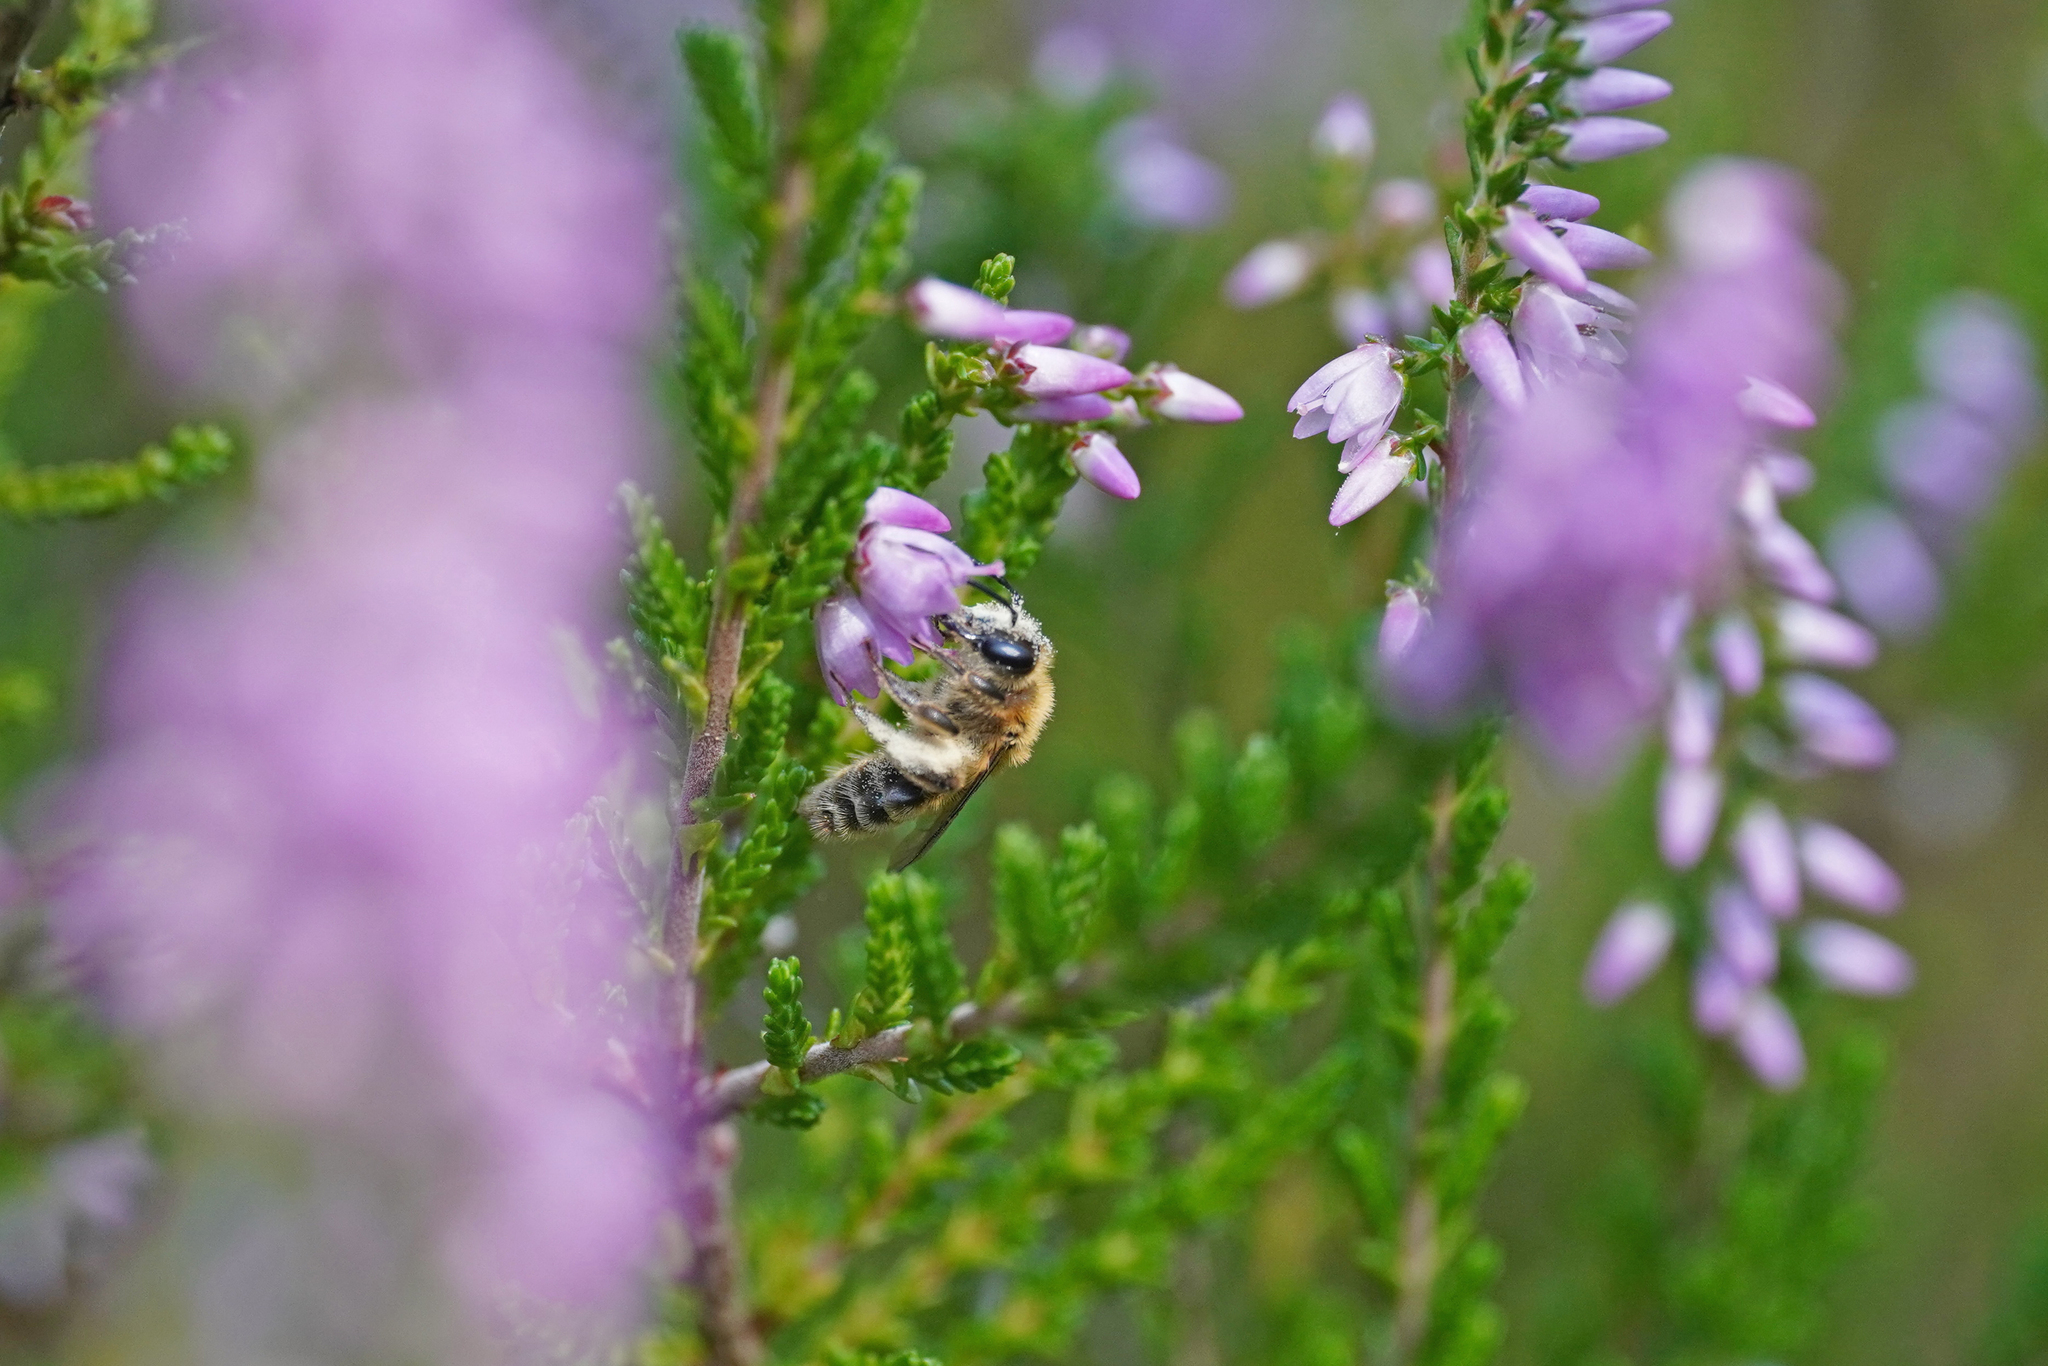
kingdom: Animalia
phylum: Arthropoda
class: Insecta
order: Hymenoptera
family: Andrenidae
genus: Andrena
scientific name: Andrena fuscipes
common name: Heather mining bee
